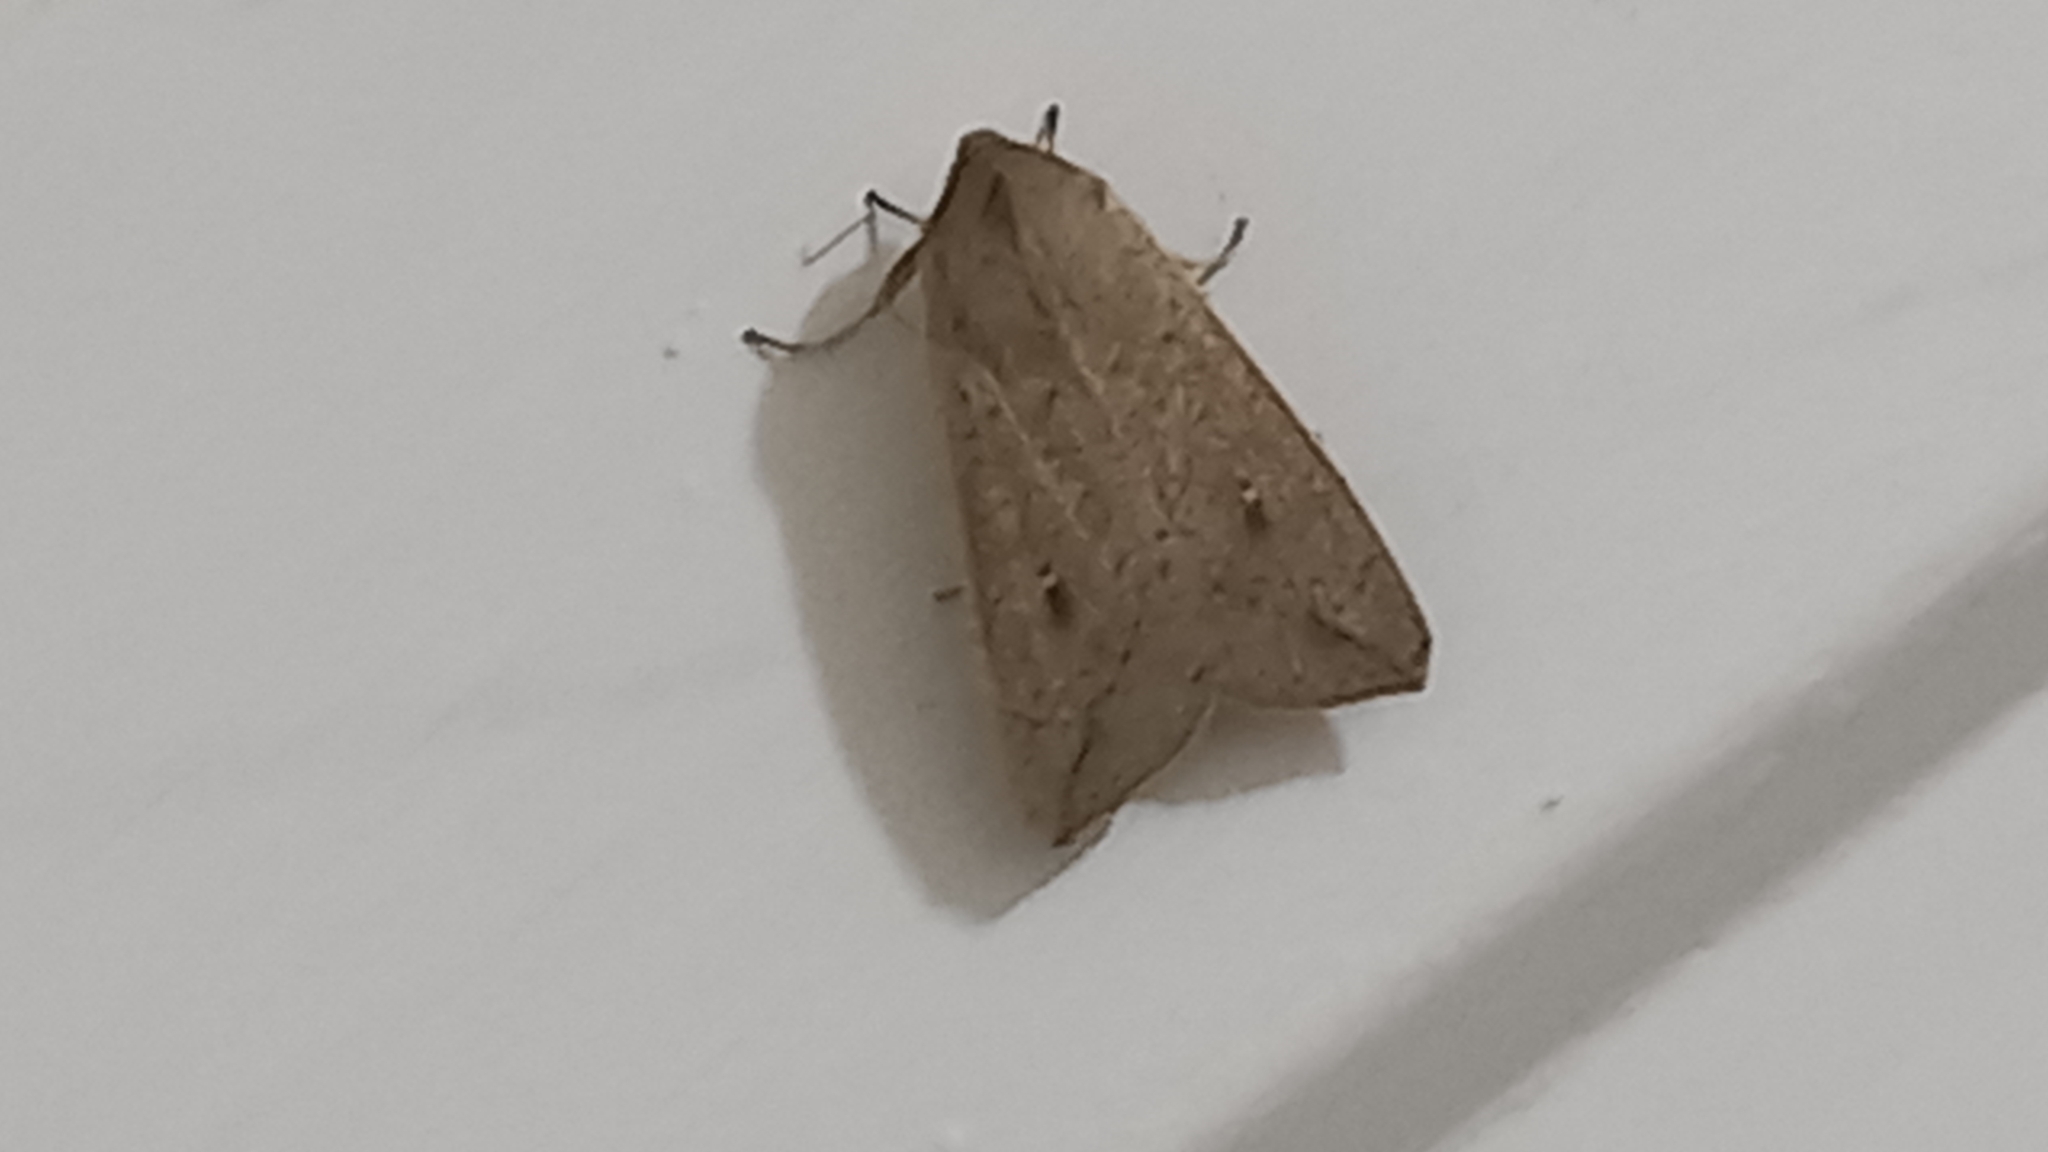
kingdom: Animalia
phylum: Arthropoda
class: Insecta
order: Lepidoptera
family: Noctuidae
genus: Mythimna
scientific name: Mythimna convecta
